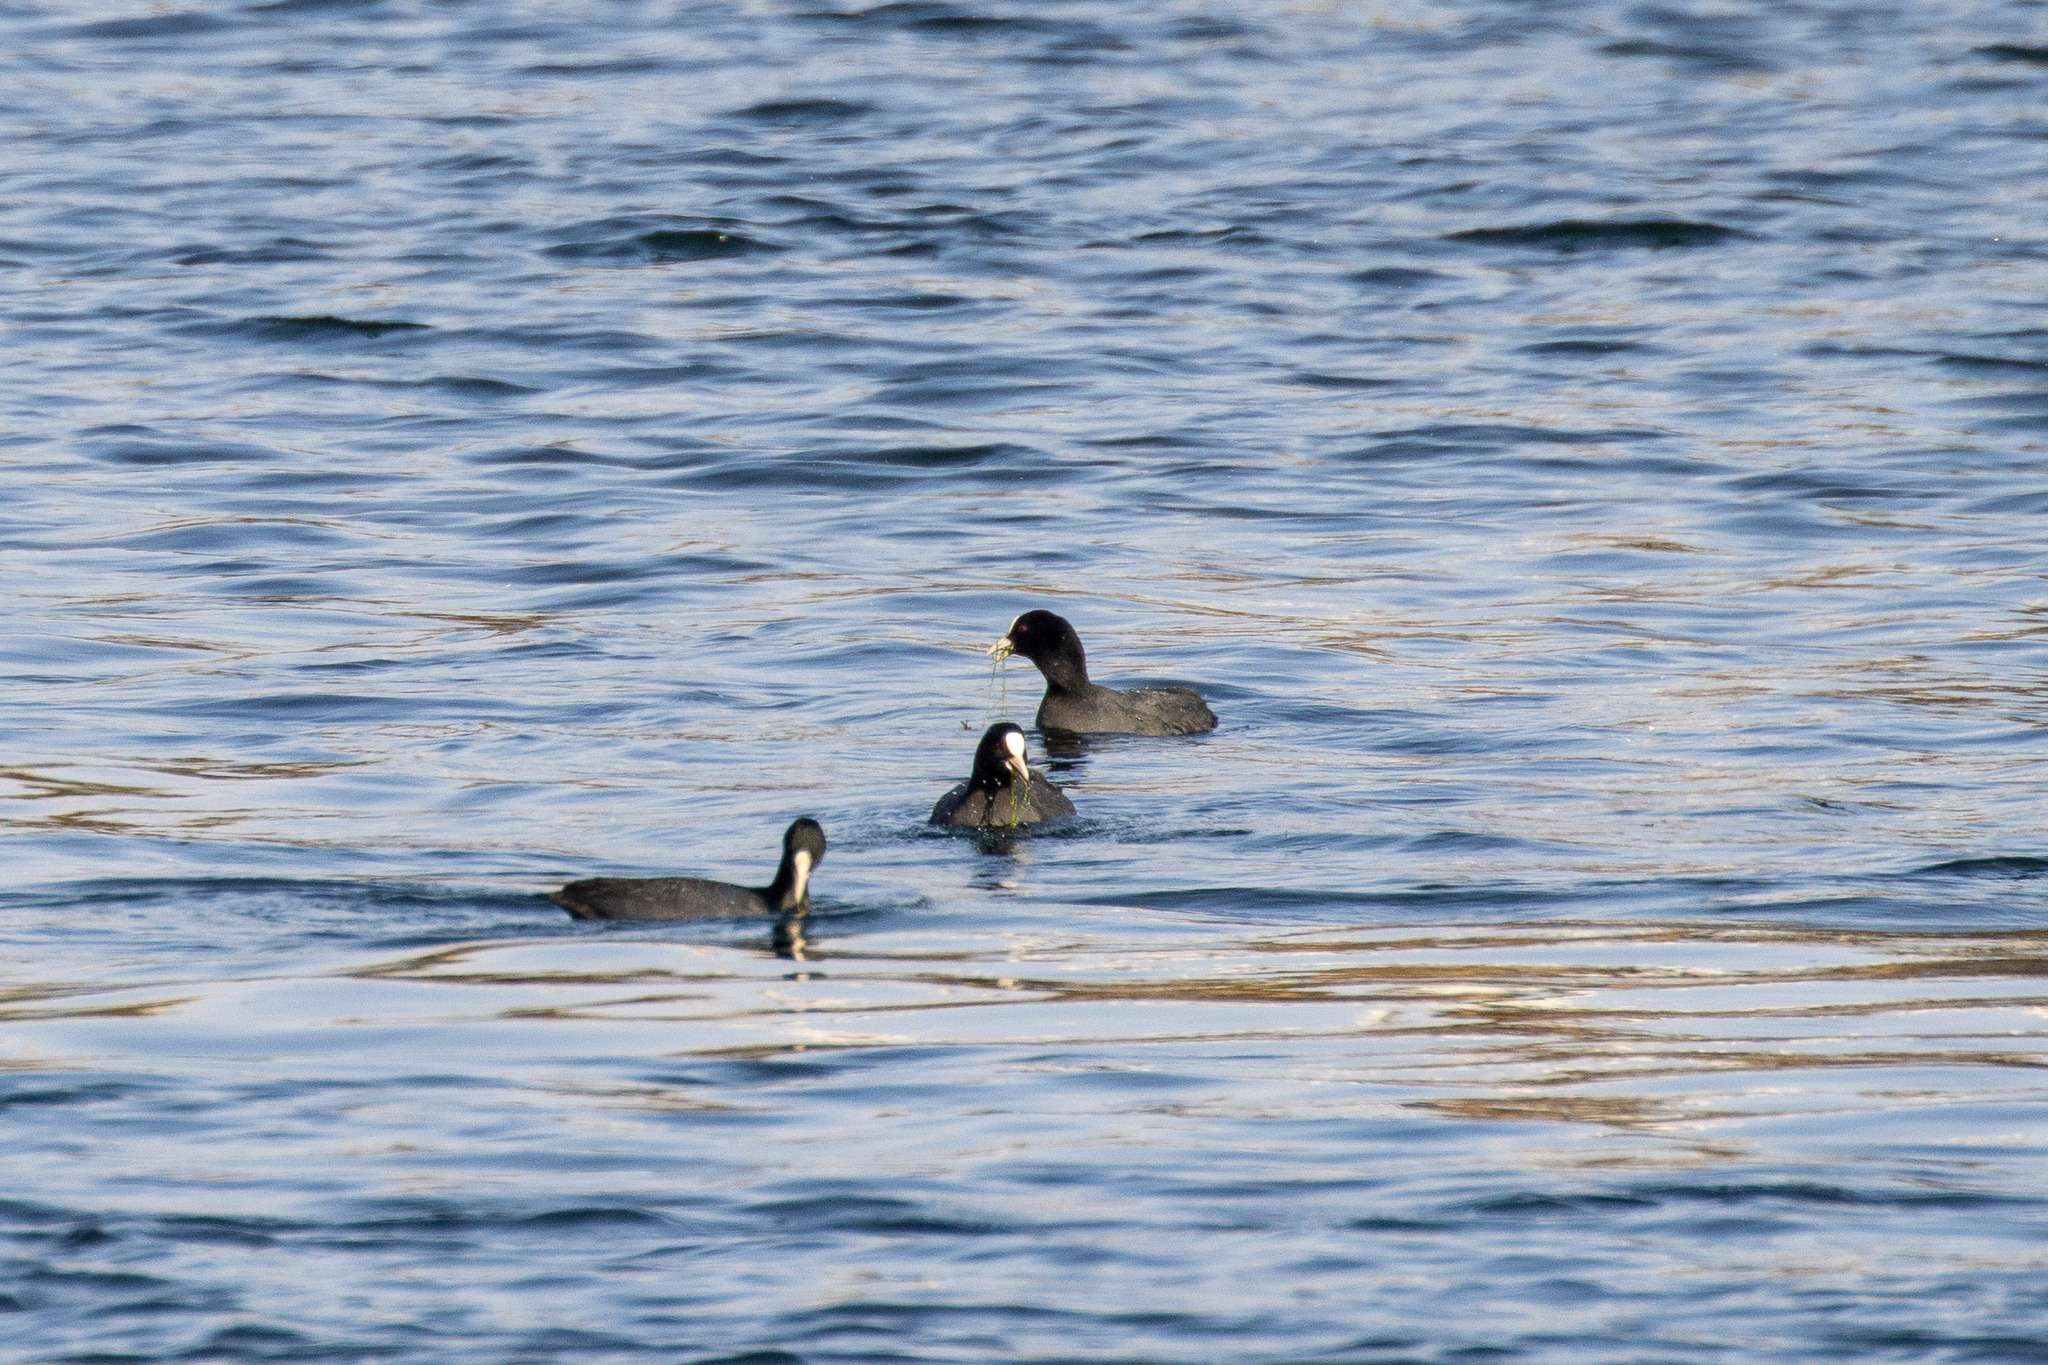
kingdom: Animalia
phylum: Chordata
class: Aves
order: Gruiformes
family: Rallidae
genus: Fulica
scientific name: Fulica atra
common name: Eurasian coot
